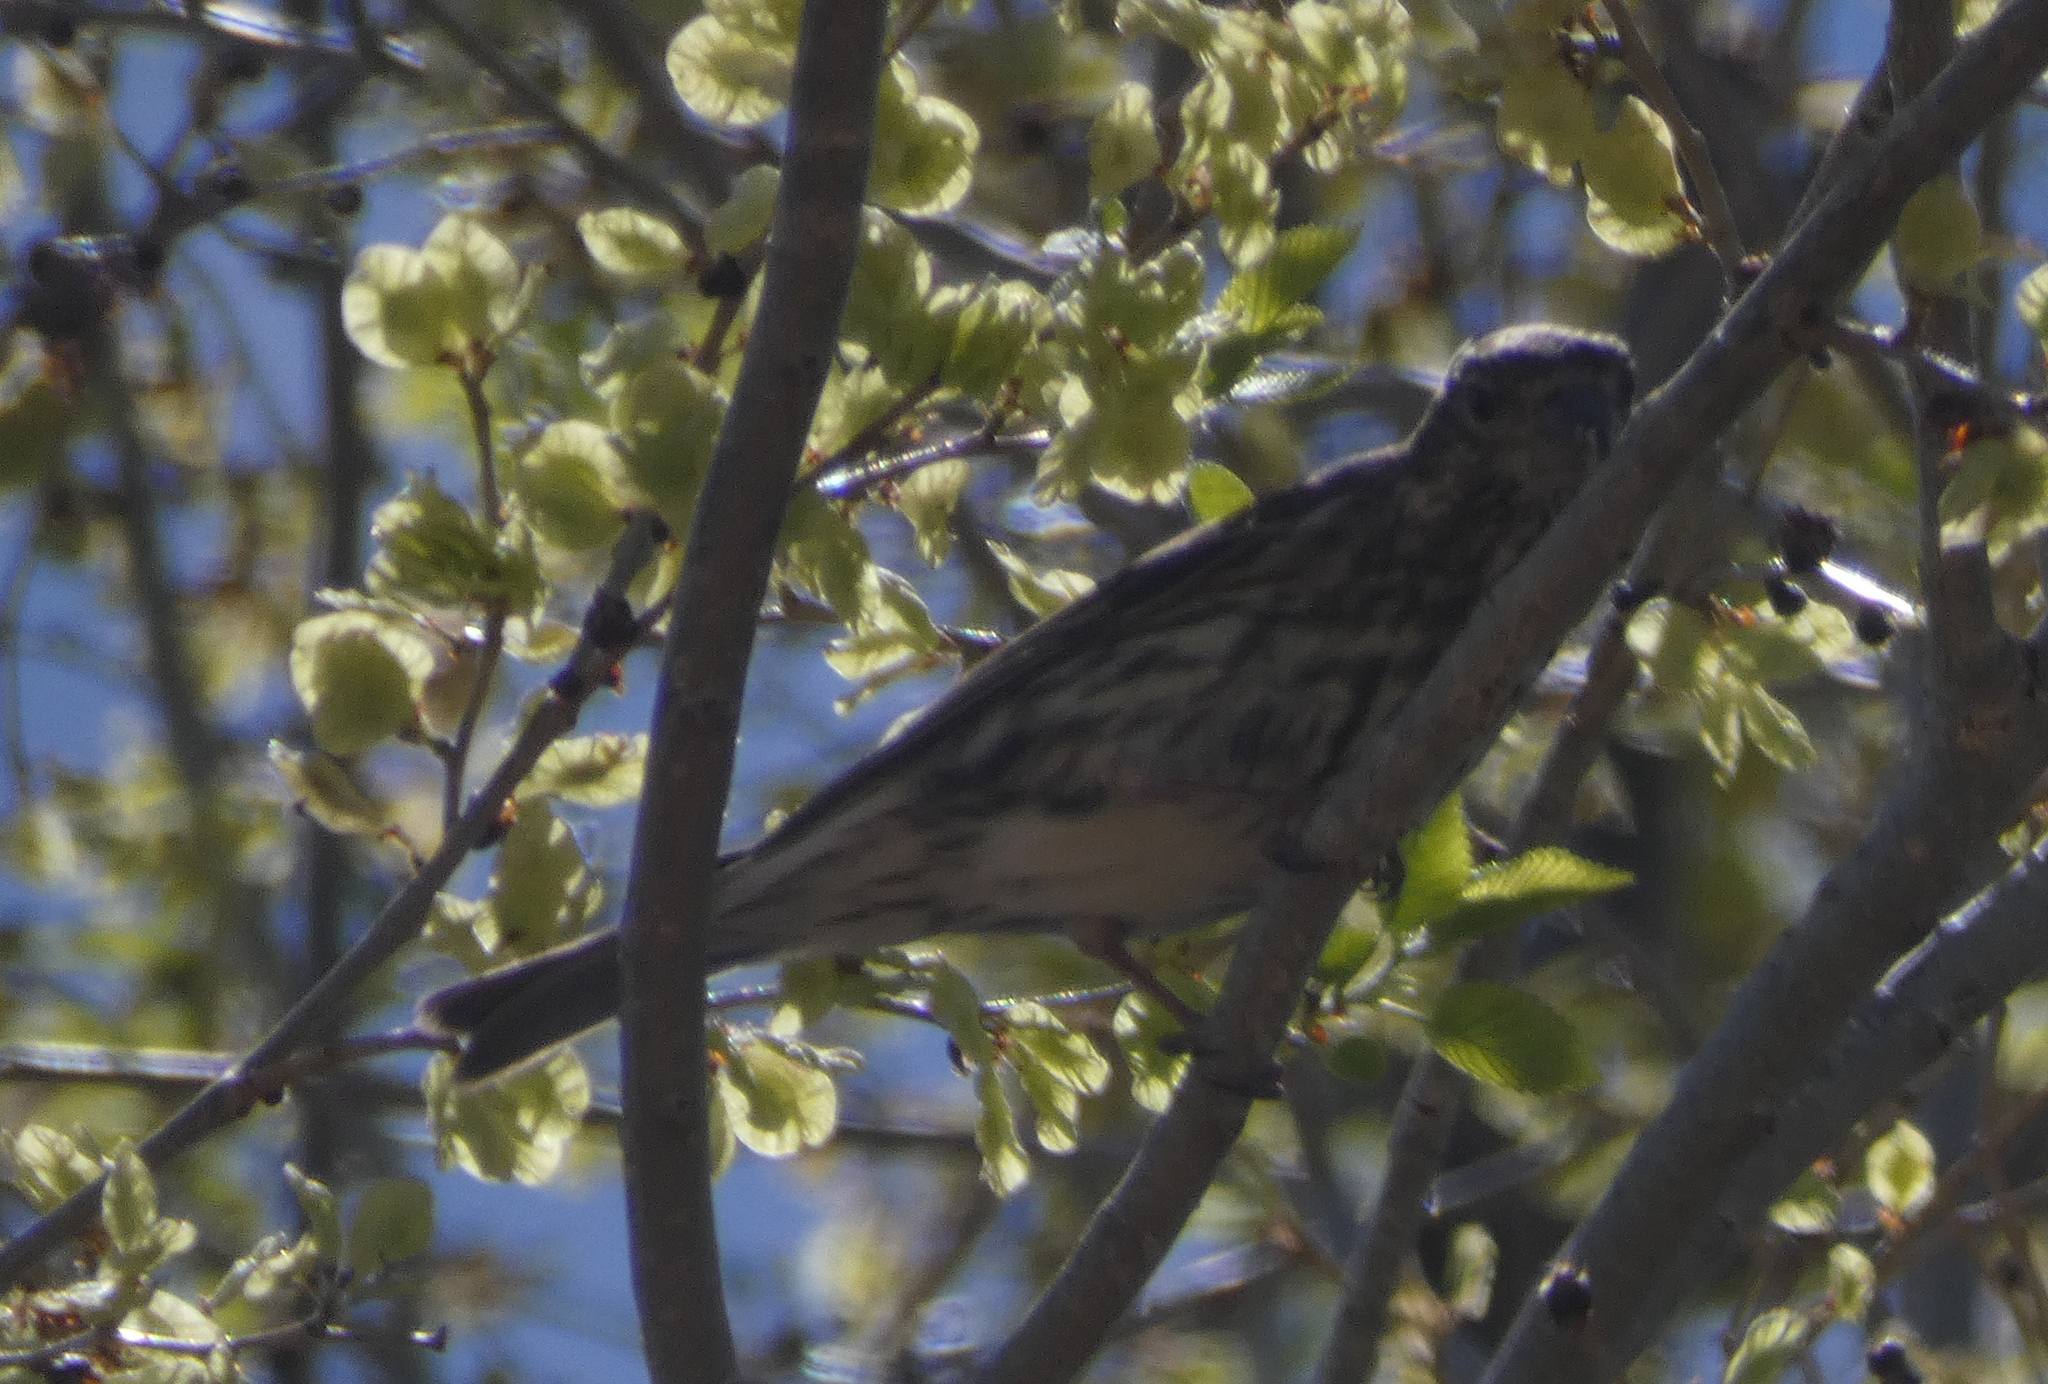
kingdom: Animalia
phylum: Chordata
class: Aves
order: Passeriformes
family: Fringillidae
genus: Haemorhous
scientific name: Haemorhous cassinii
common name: Cassin's finch
